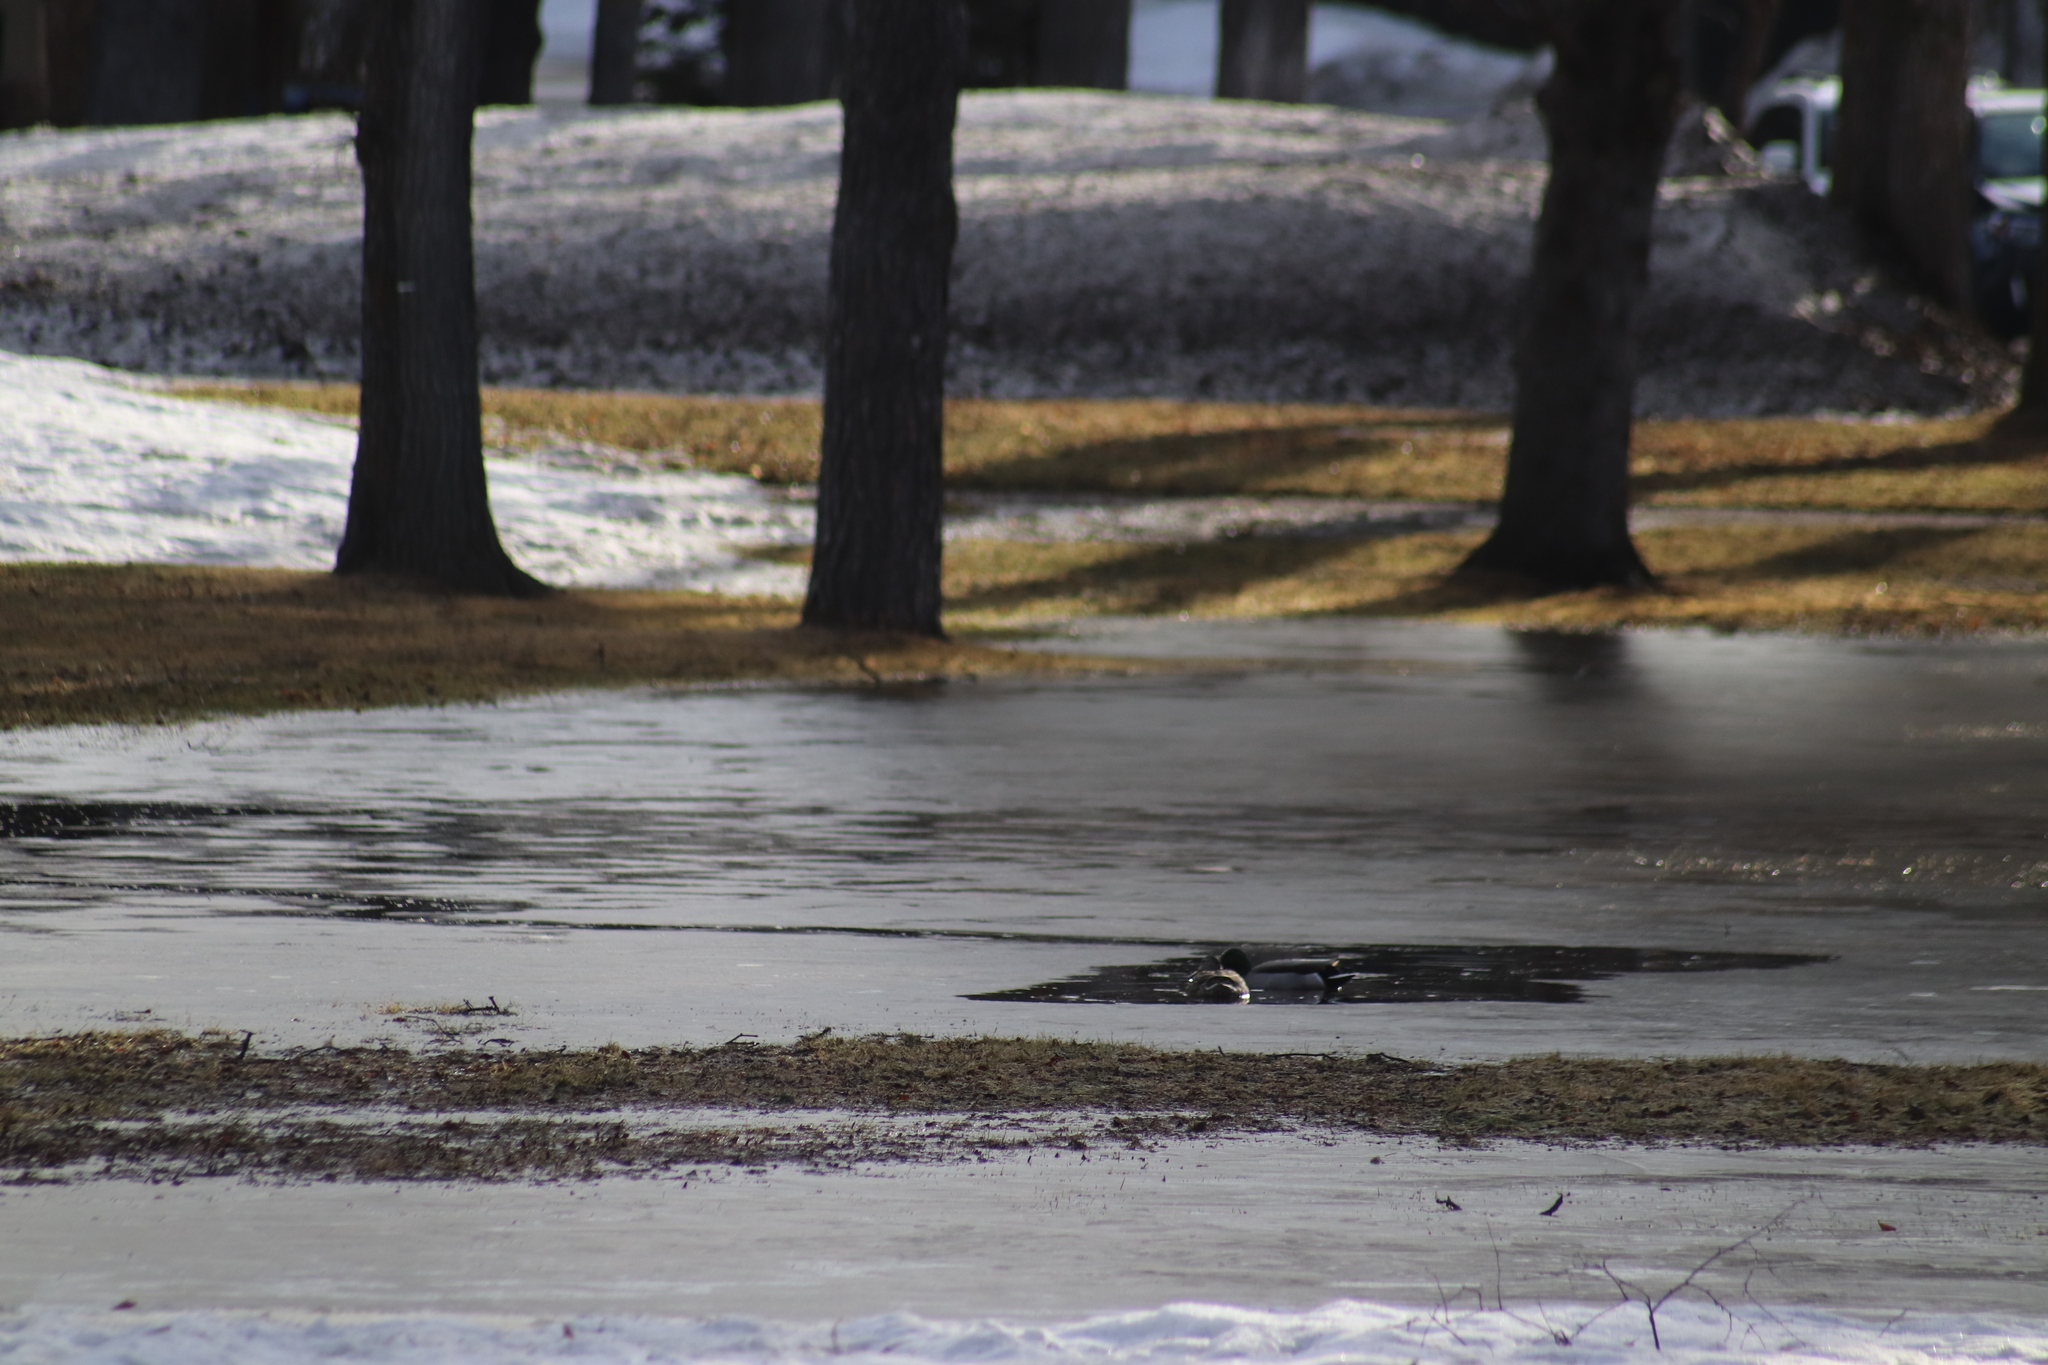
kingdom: Animalia
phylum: Chordata
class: Aves
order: Anseriformes
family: Anatidae
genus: Anas
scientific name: Anas platyrhynchos
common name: Mallard
